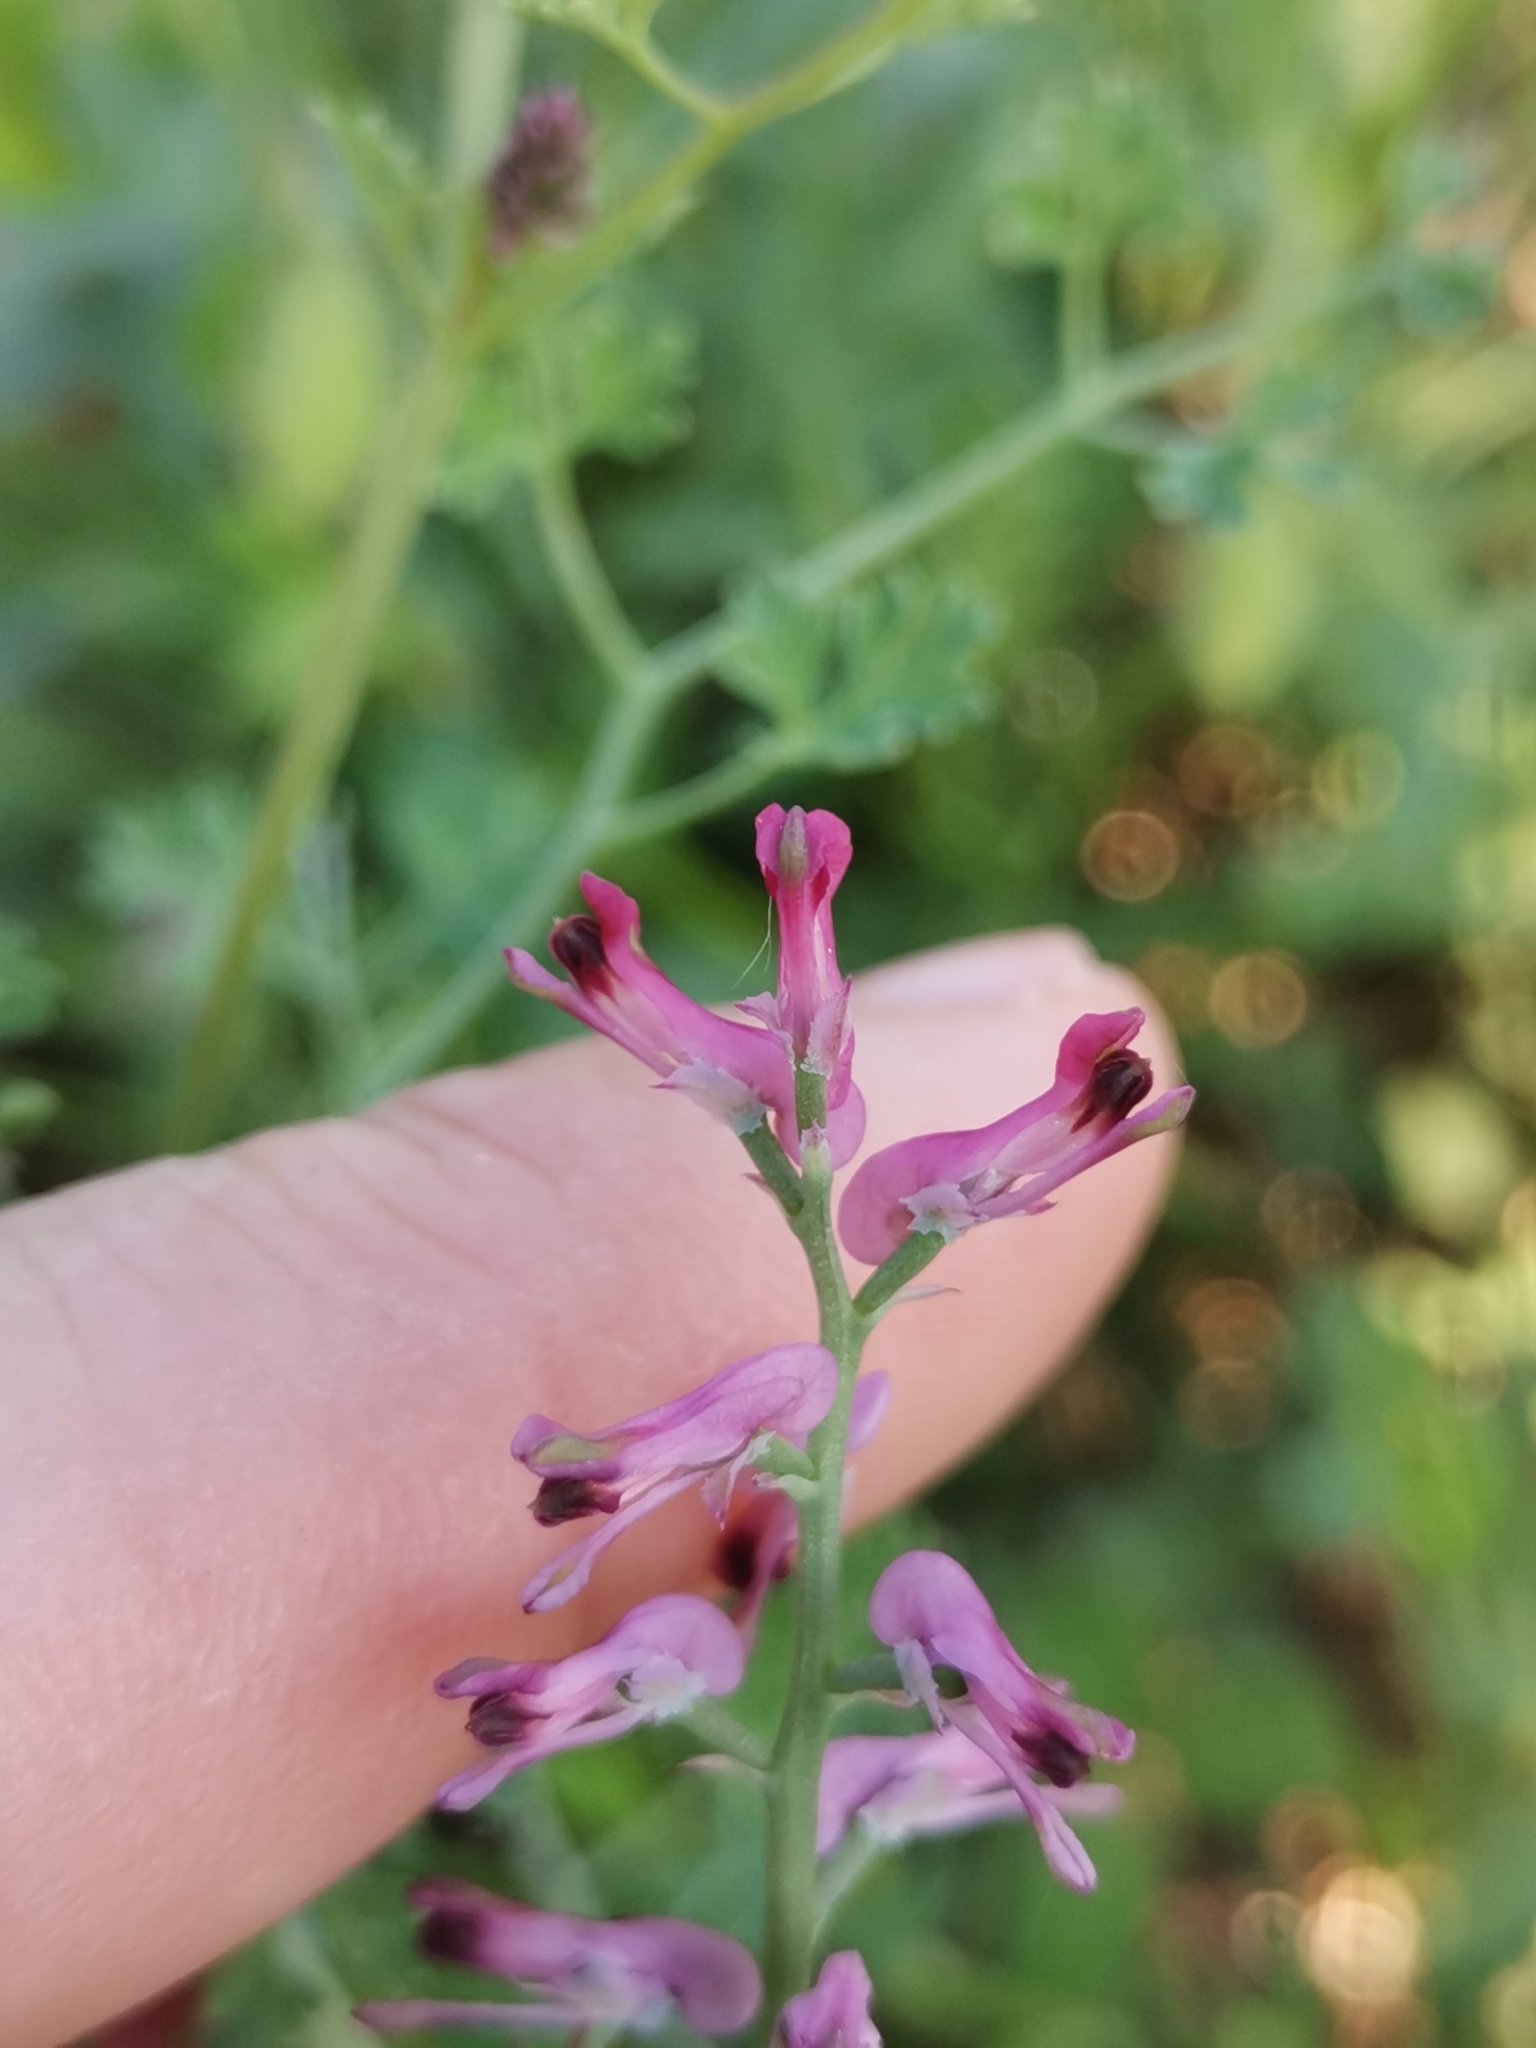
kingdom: Plantae
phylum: Tracheophyta
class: Magnoliopsida
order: Ranunculales
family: Papaveraceae
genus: Fumaria
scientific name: Fumaria officinalis
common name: Common fumitory
